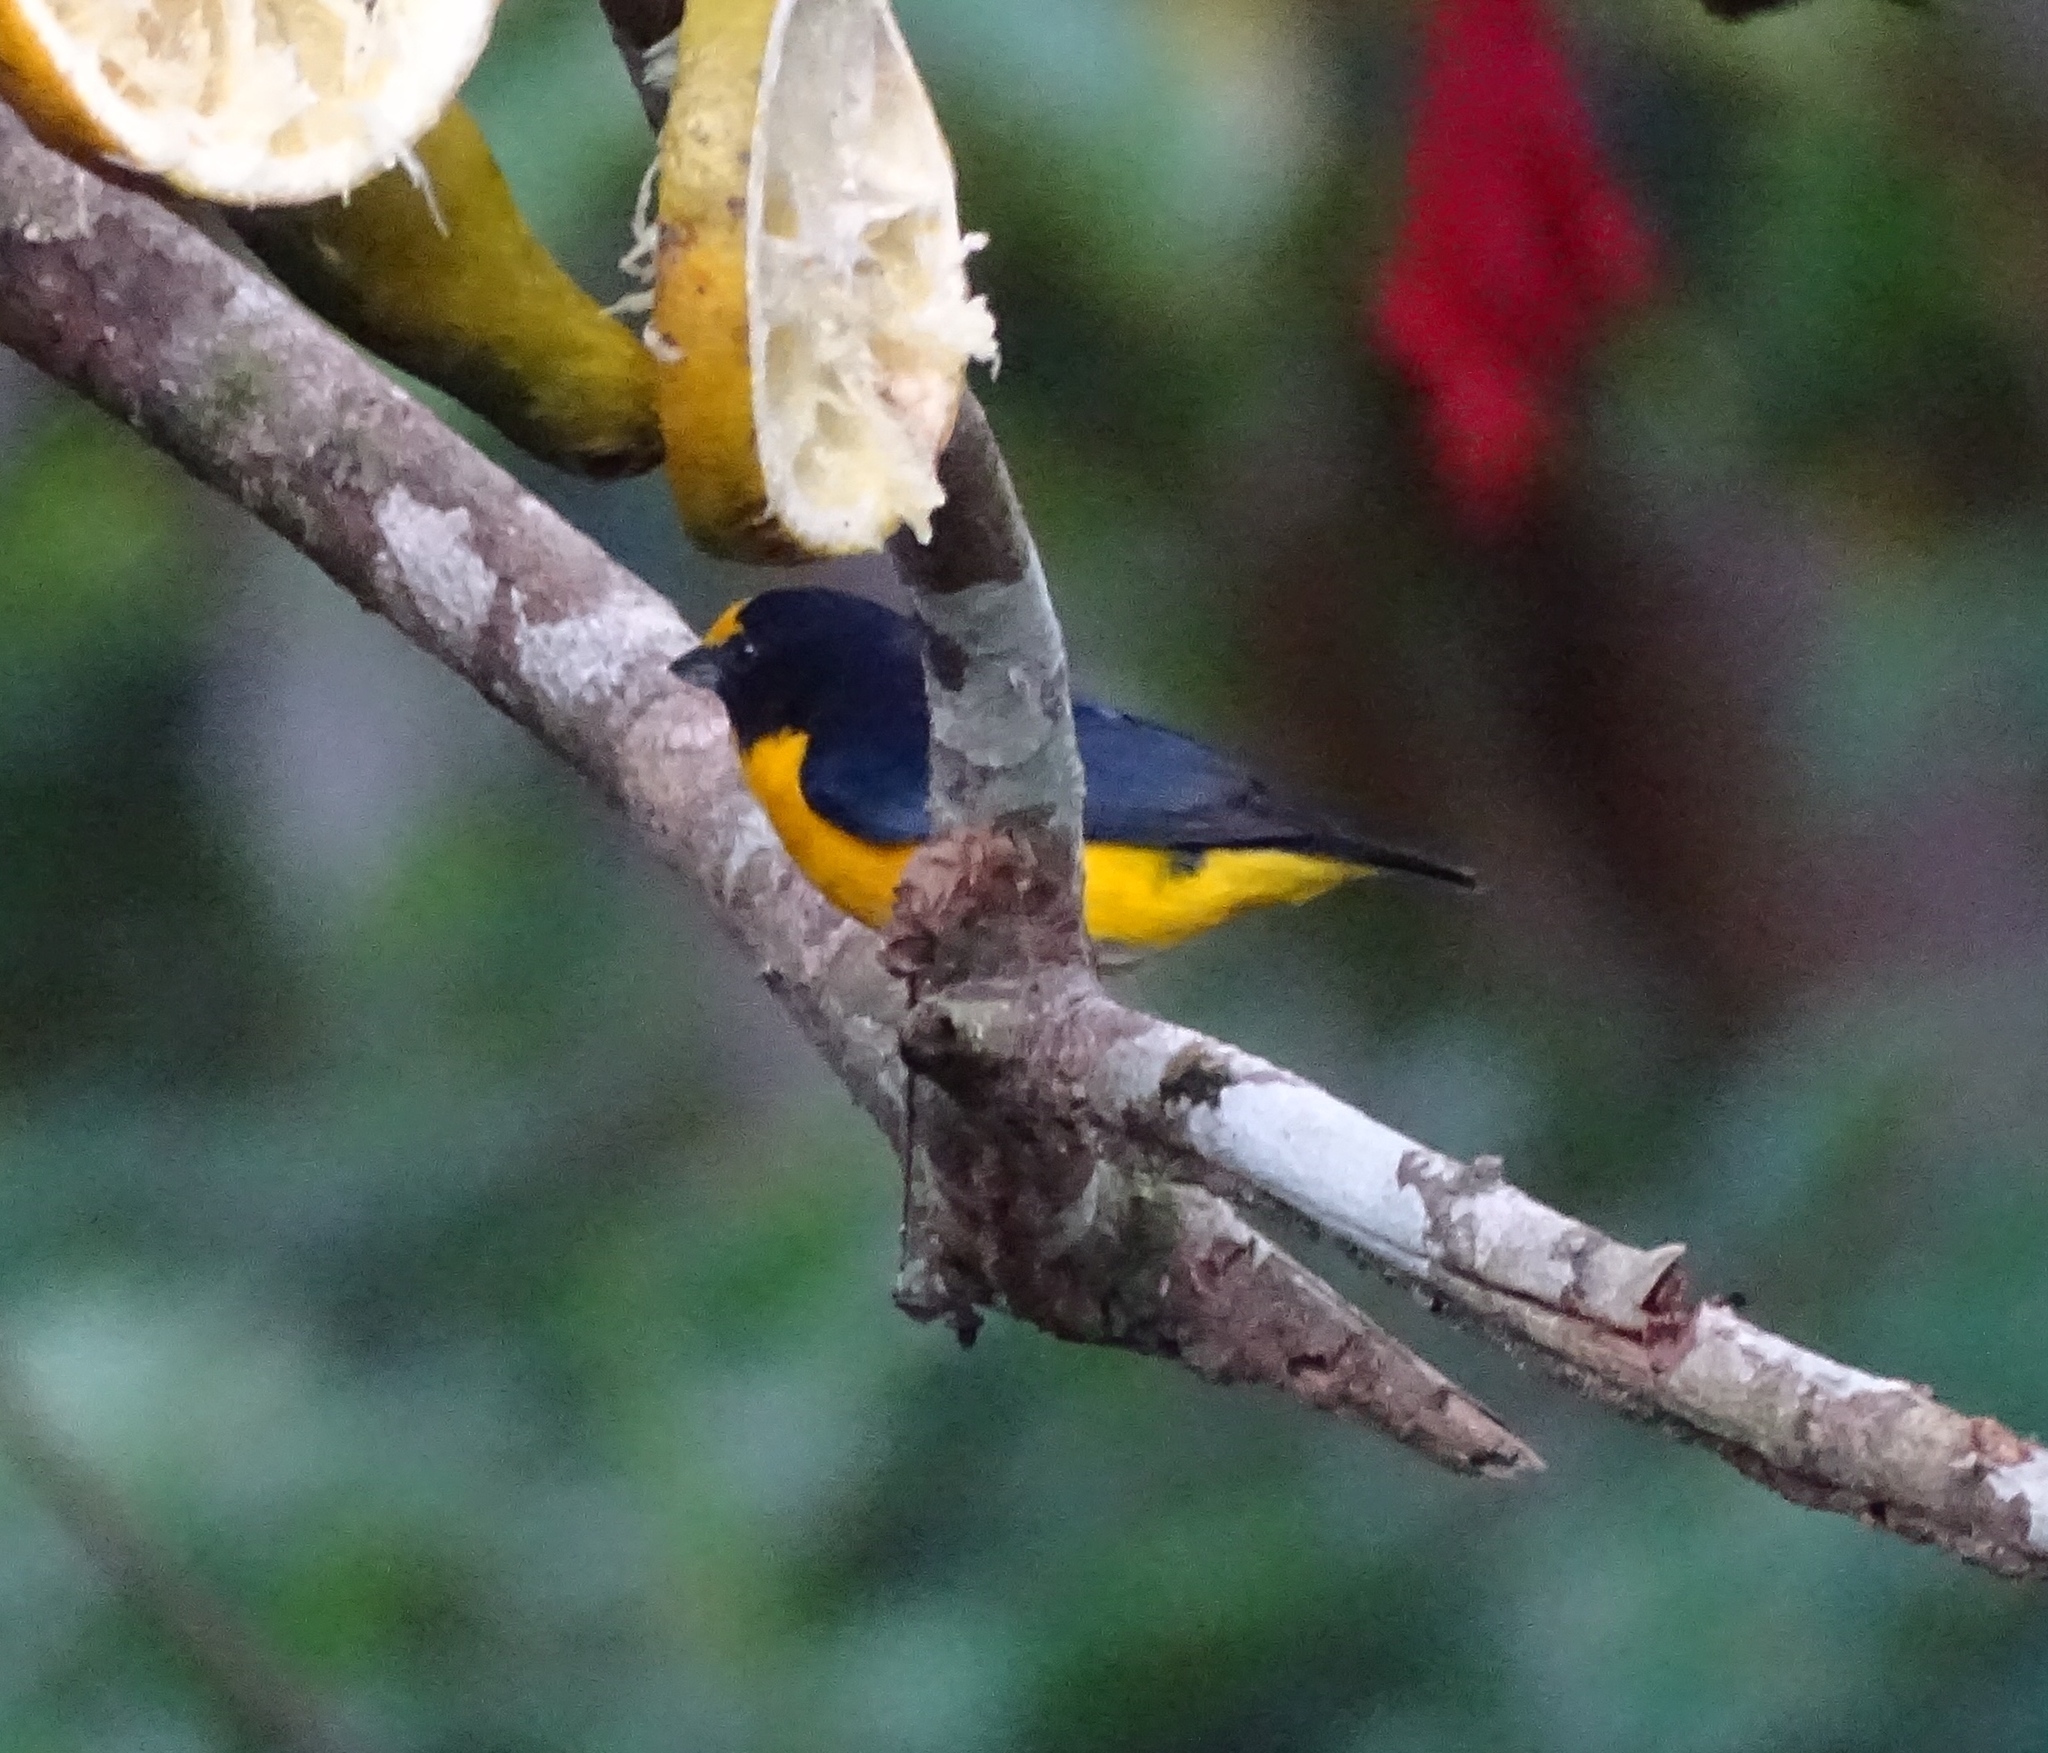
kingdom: Animalia
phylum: Chordata
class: Aves
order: Passeriformes
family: Fringillidae
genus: Euphonia
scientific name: Euphonia hirundinacea
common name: Yellow-throated euphonia
